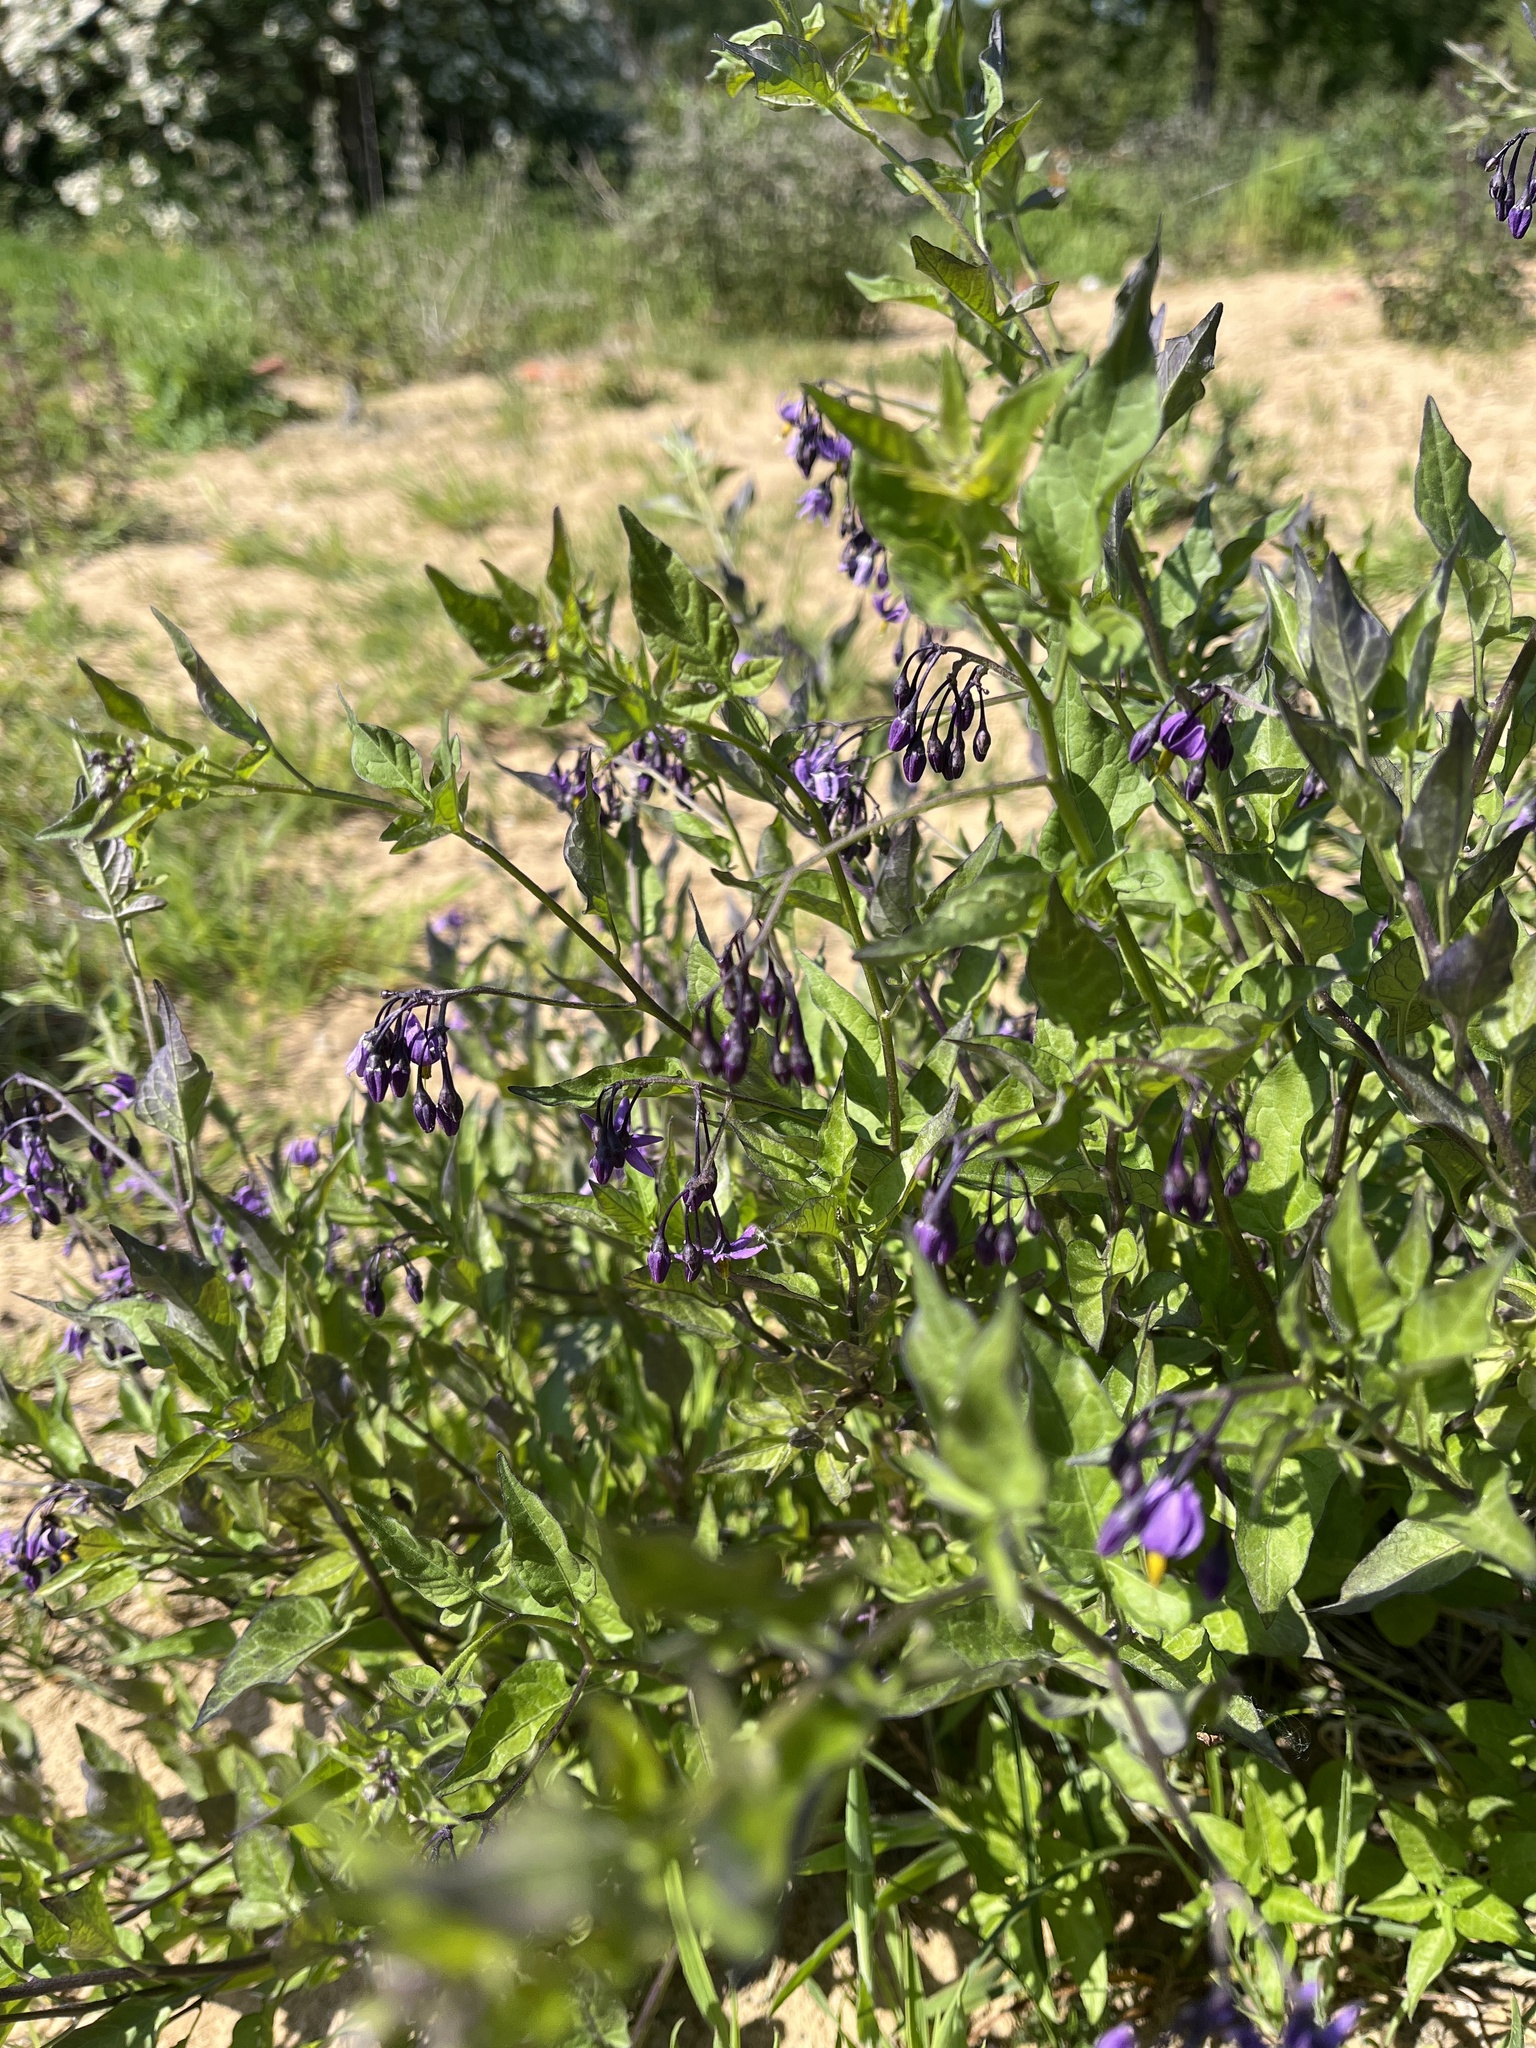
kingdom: Plantae
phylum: Tracheophyta
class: Magnoliopsida
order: Solanales
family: Solanaceae
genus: Solanum
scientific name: Solanum dulcamara
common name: Climbing nightshade
